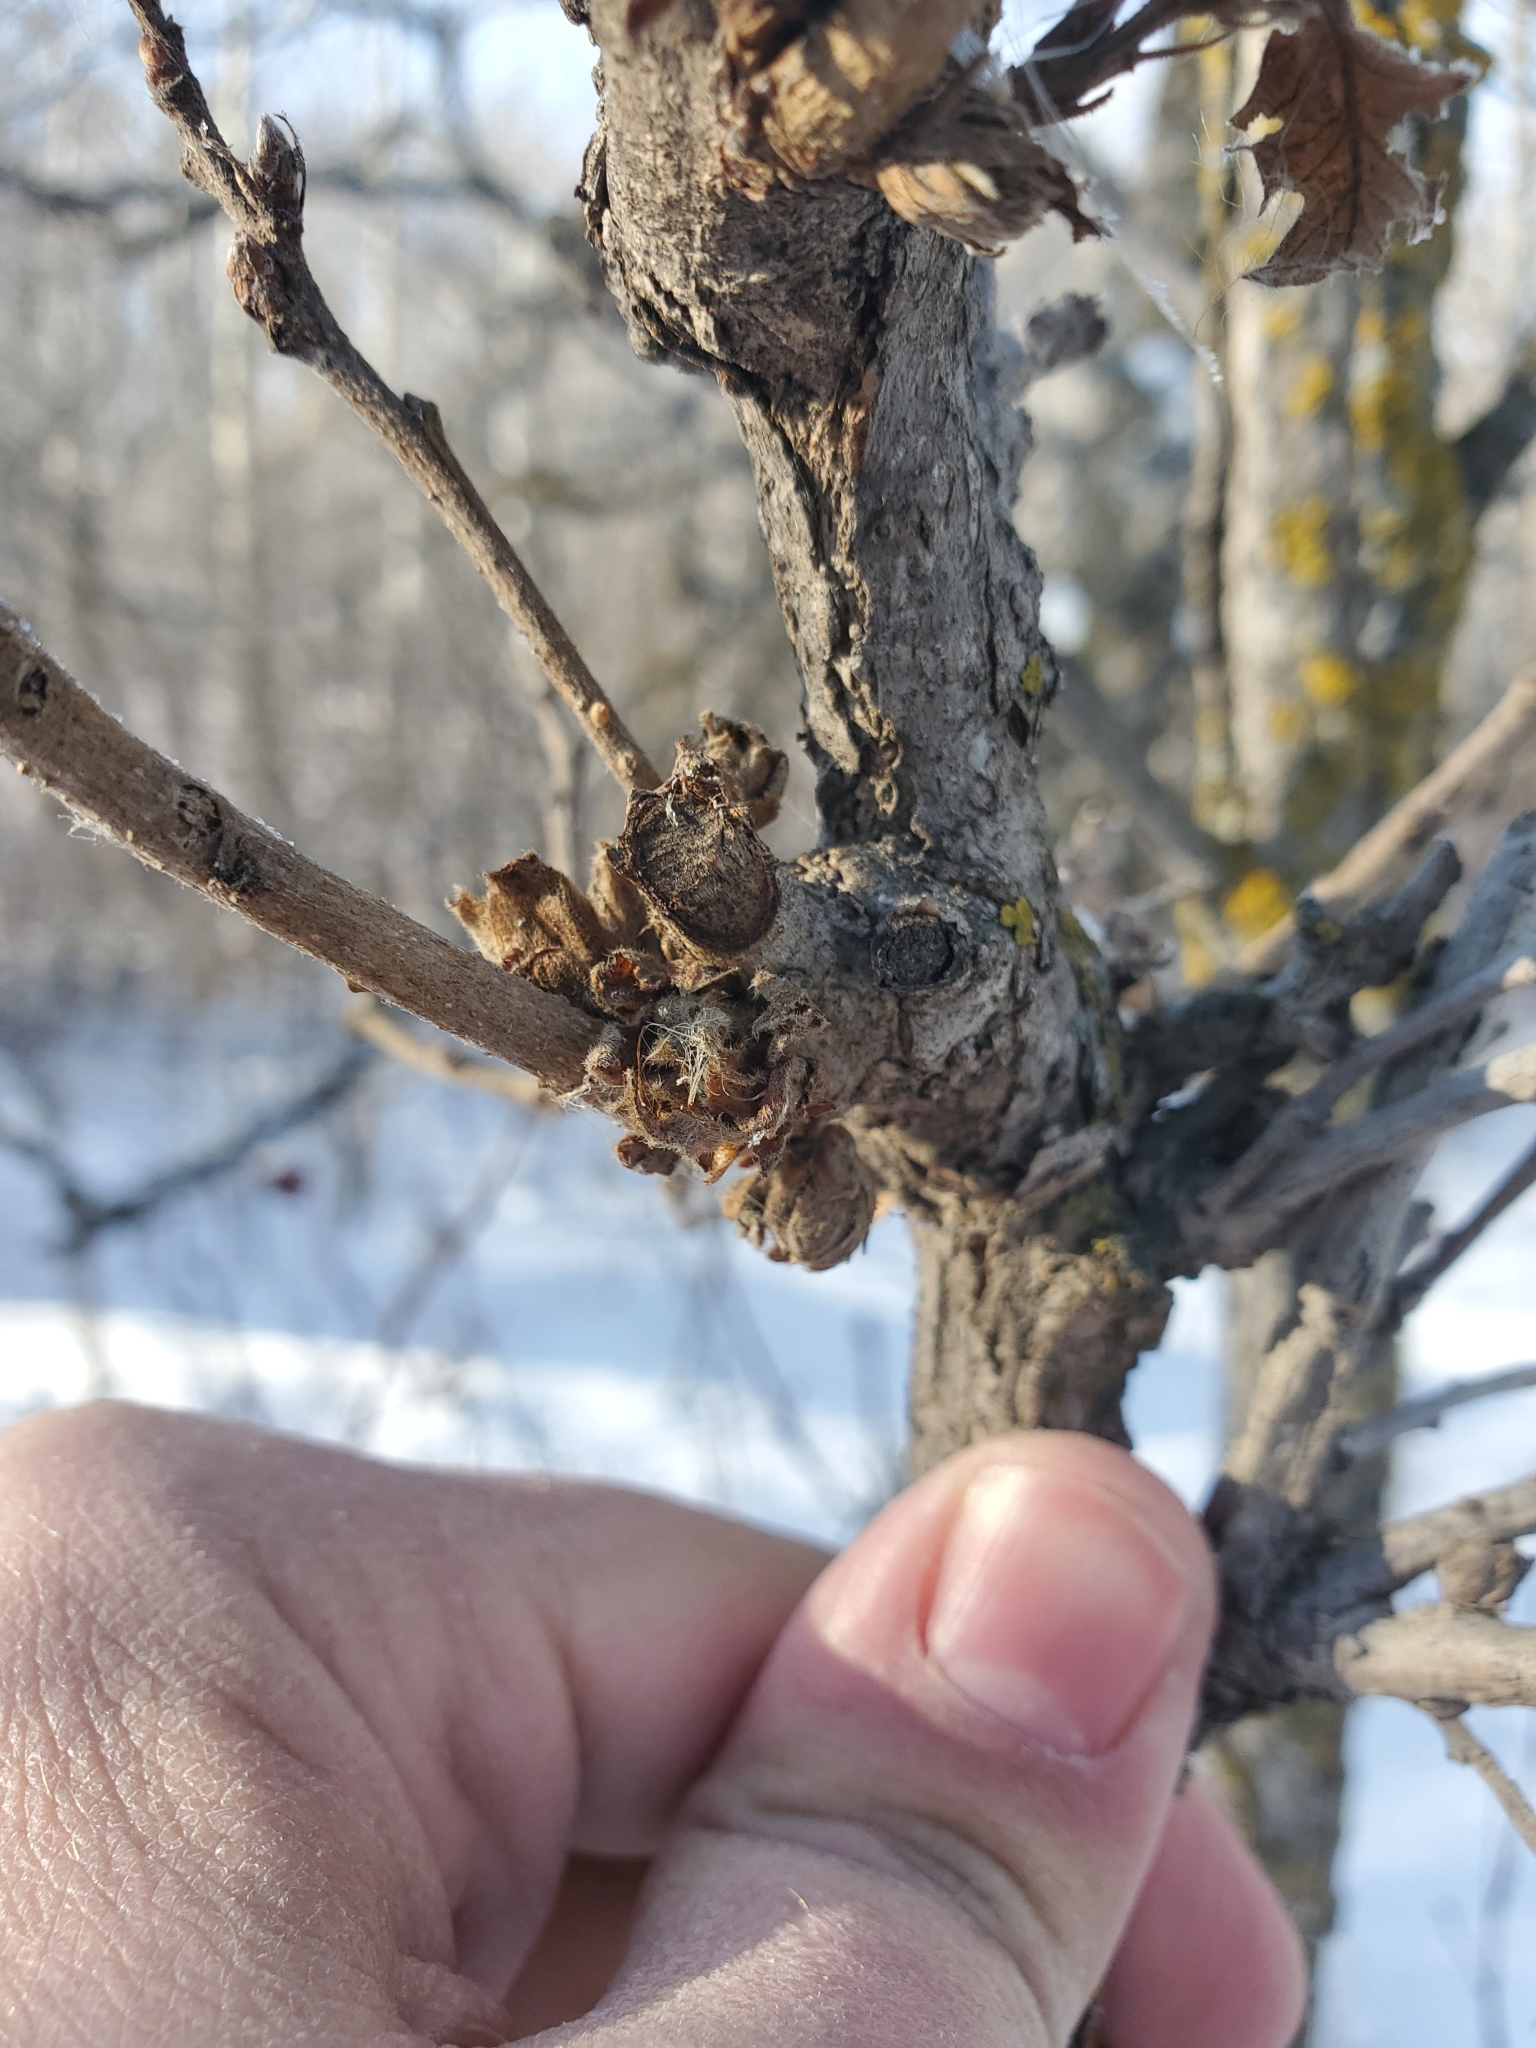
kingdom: Animalia
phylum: Arthropoda
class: Insecta
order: Hymenoptera
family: Cynipidae
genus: Andricus
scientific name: Andricus
